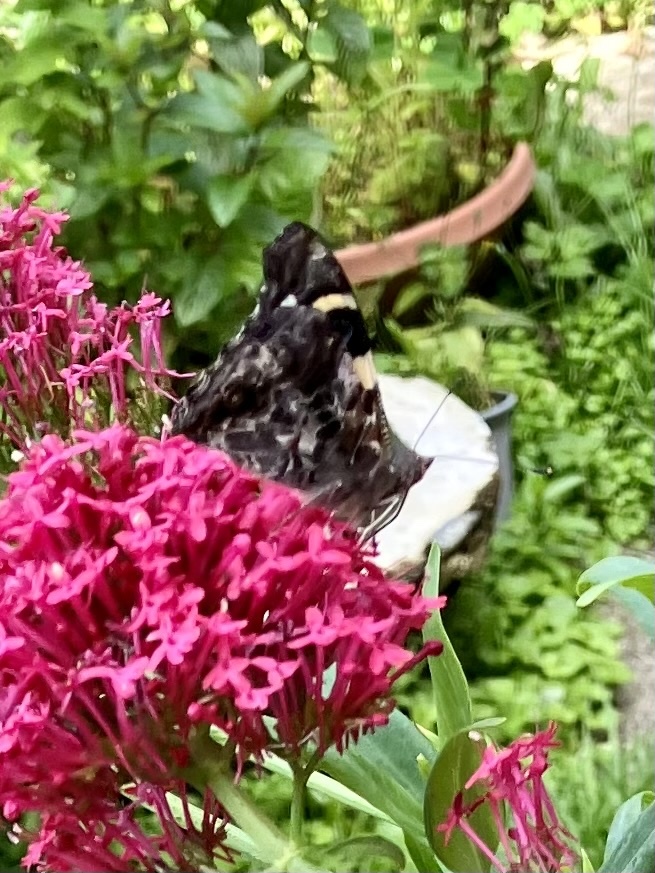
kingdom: Animalia
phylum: Arthropoda
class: Insecta
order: Lepidoptera
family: Nymphalidae
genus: Vanessa
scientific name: Vanessa itea
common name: Yellow admiral
